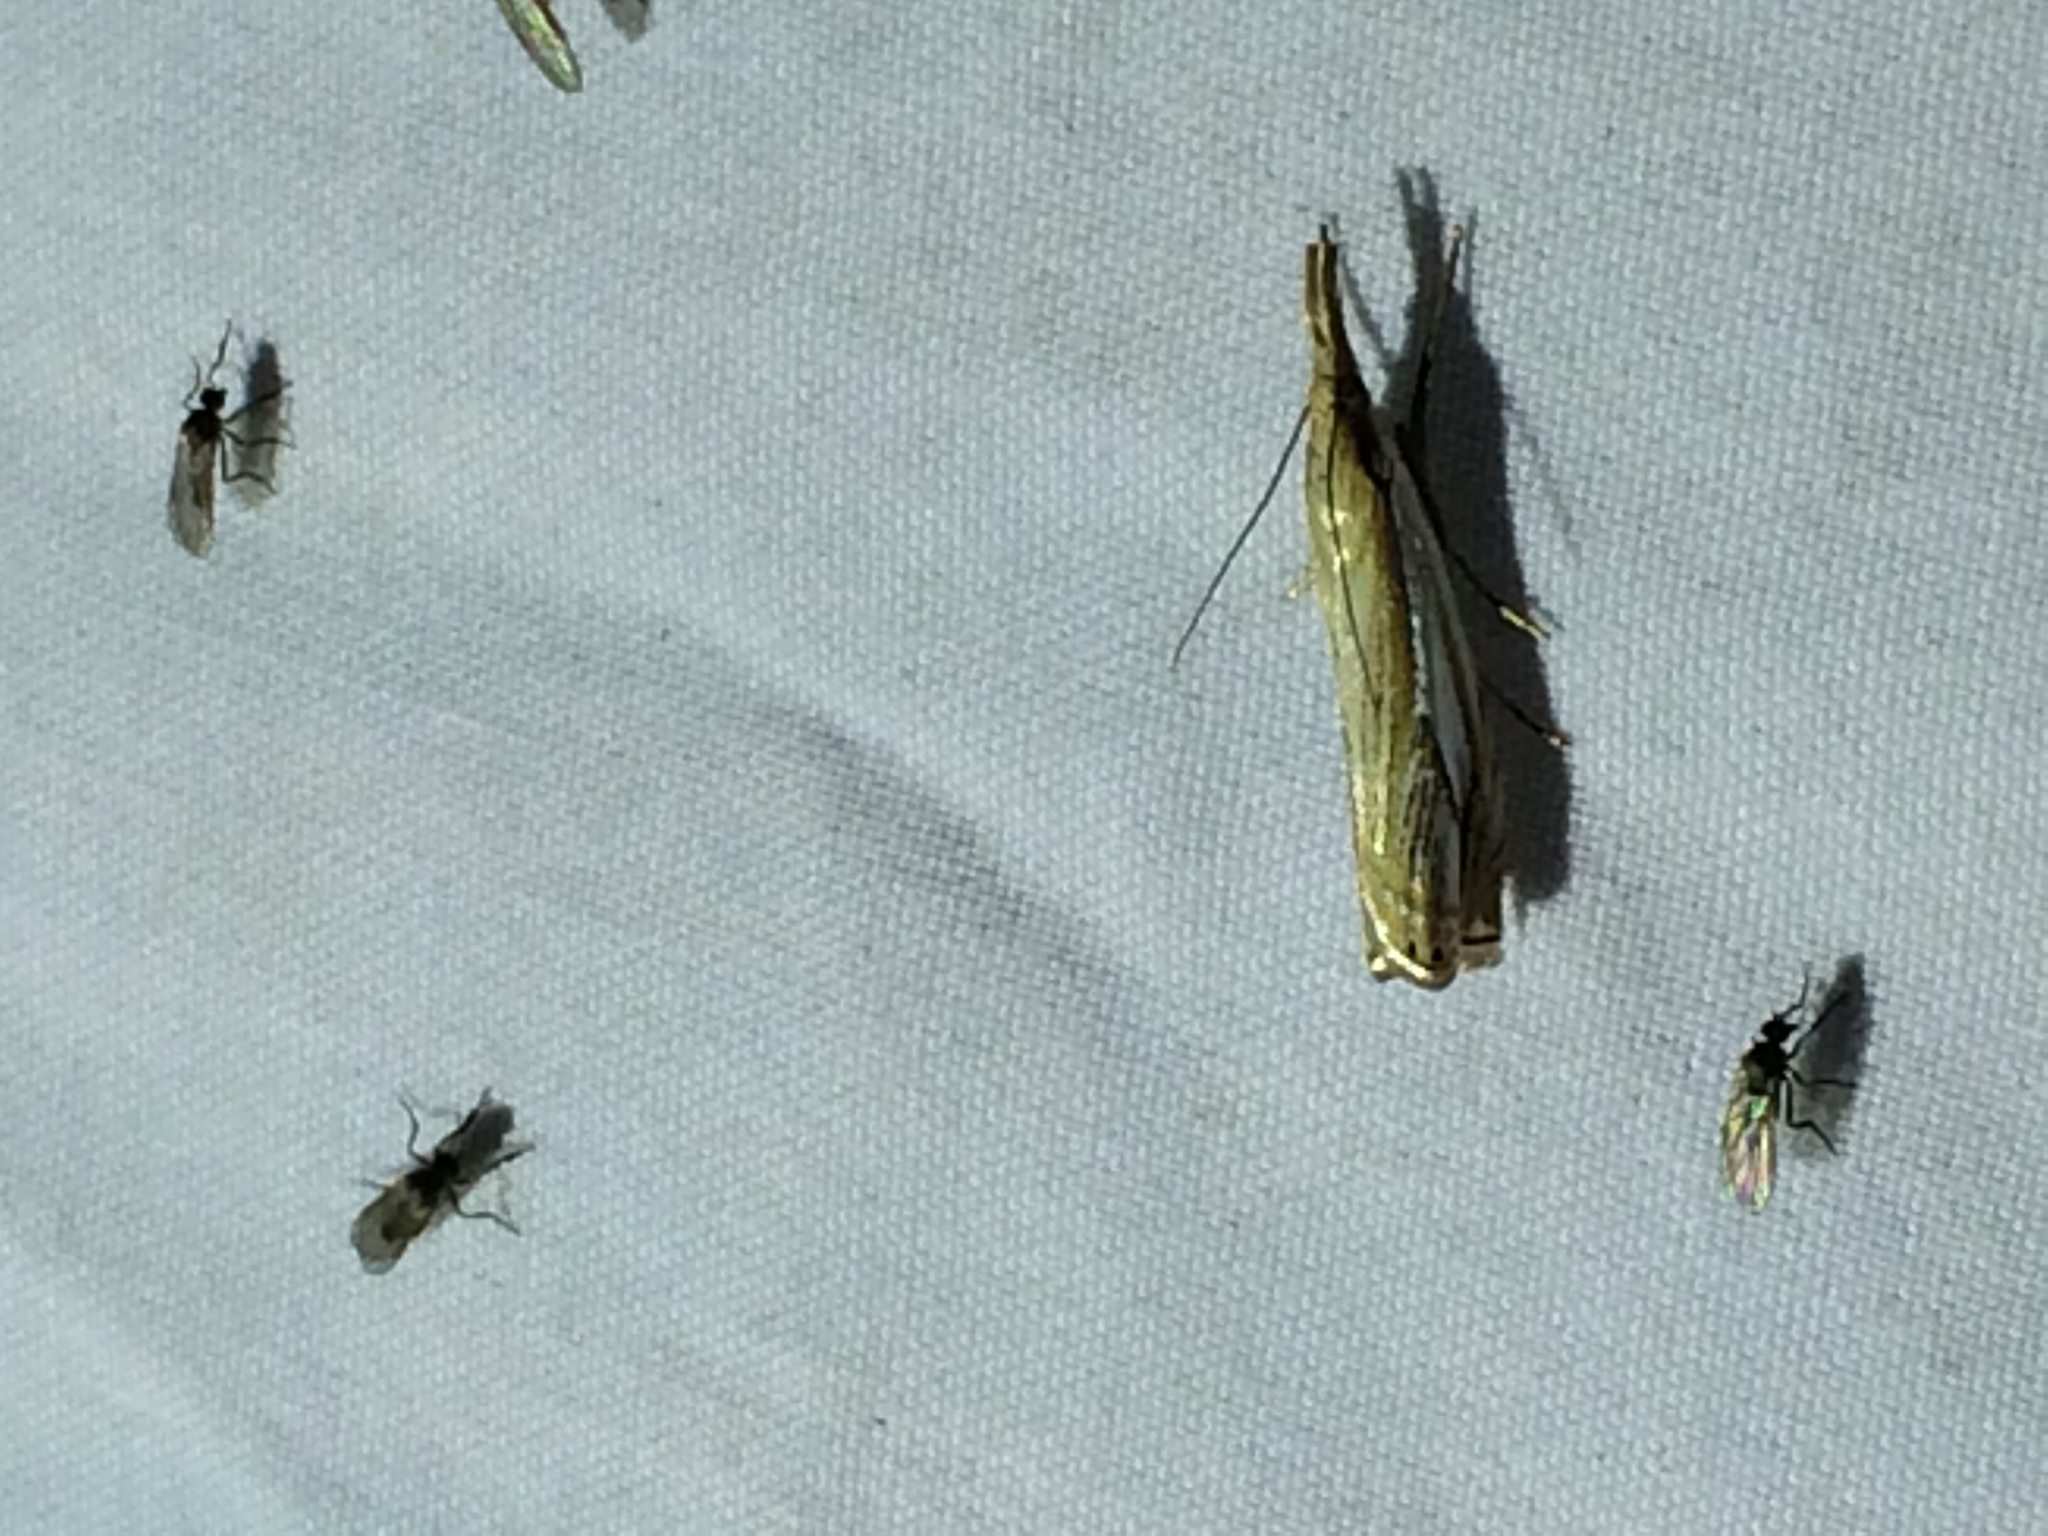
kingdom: Animalia
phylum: Arthropoda
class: Insecta
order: Lepidoptera
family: Crambidae
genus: Crambus
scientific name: Crambus saltuellus
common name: Pasture grass-veneer
